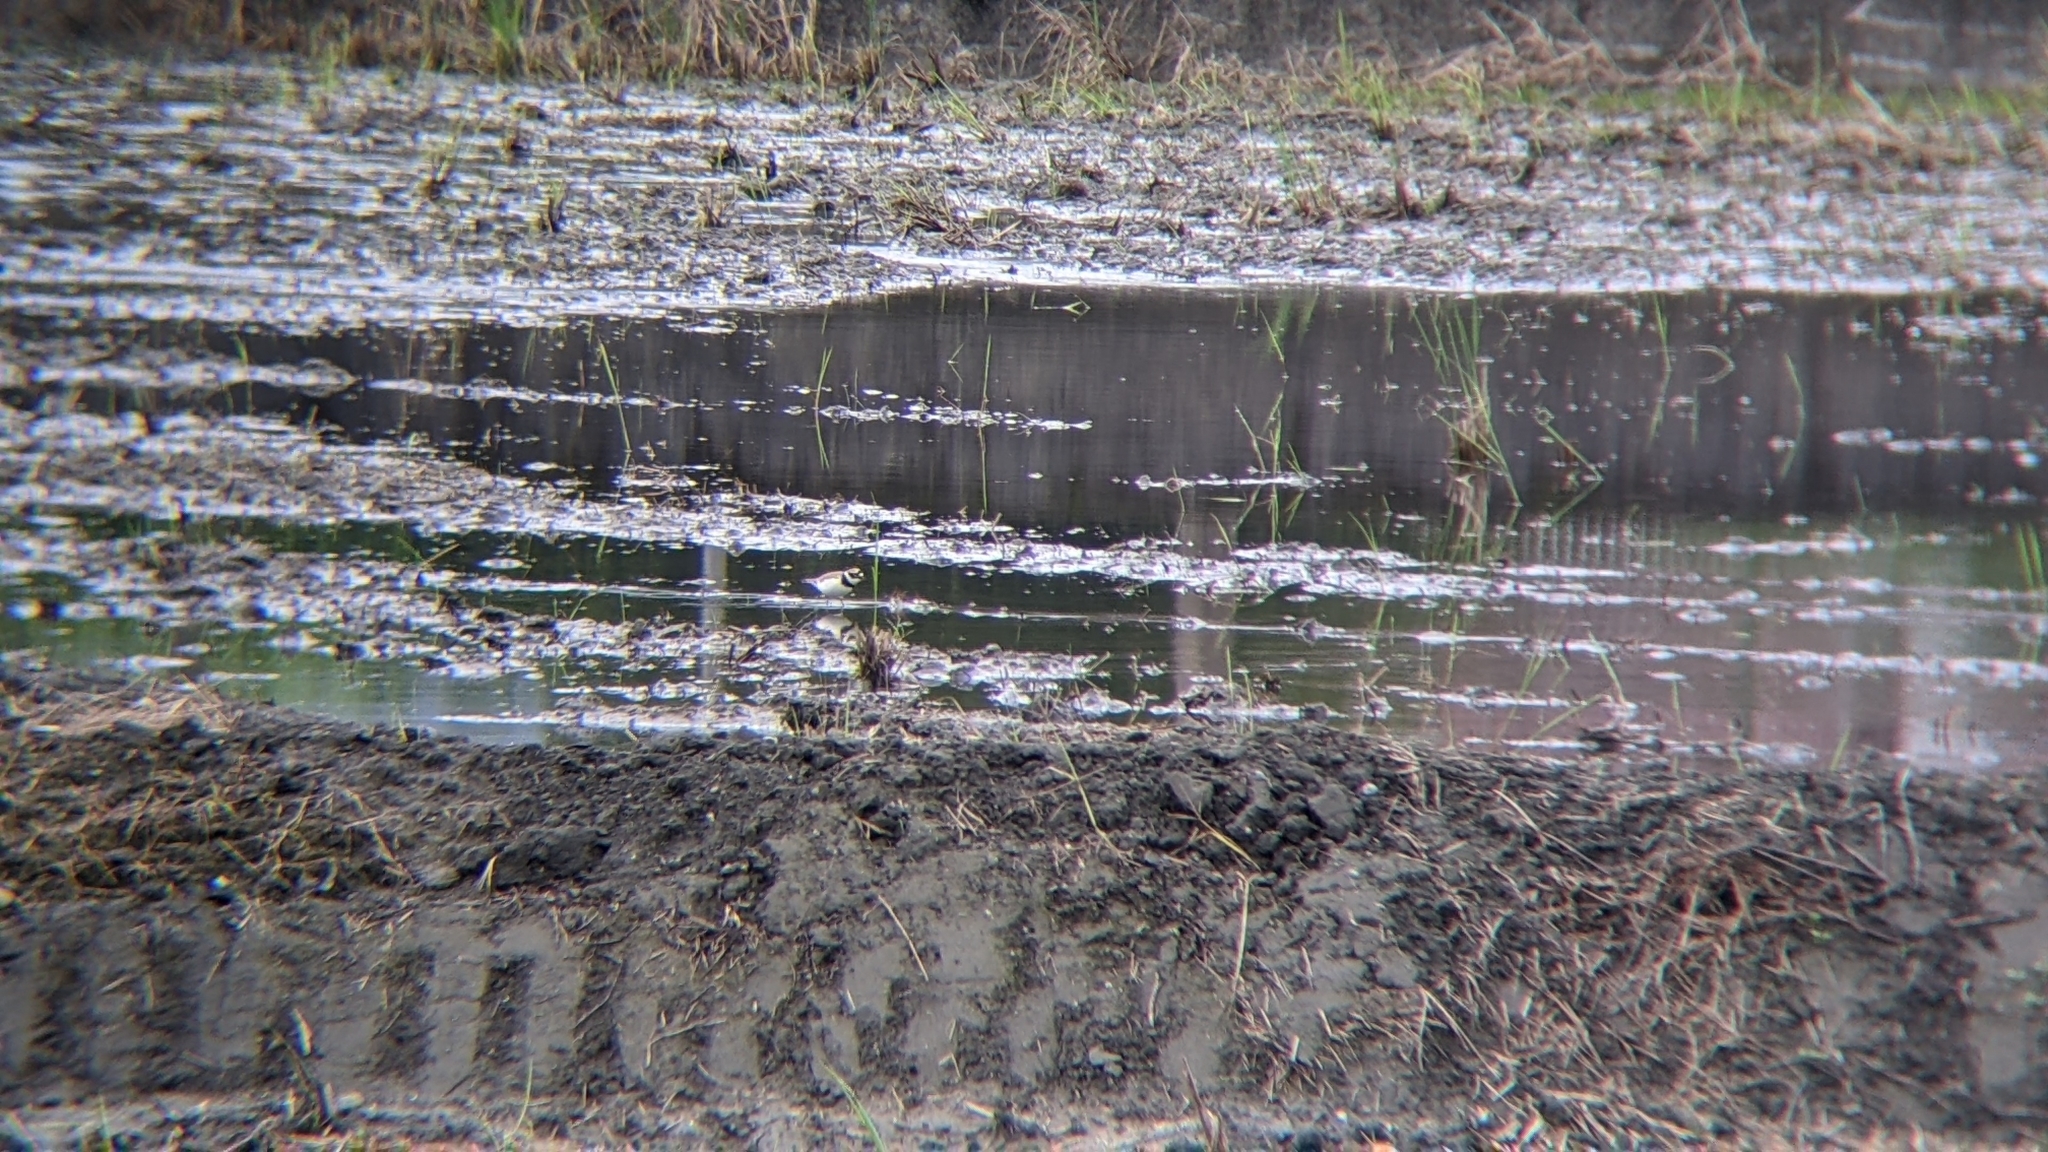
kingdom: Animalia
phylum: Chordata
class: Aves
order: Charadriiformes
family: Charadriidae
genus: Charadrius
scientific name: Charadrius dubius
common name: Little ringed plover
